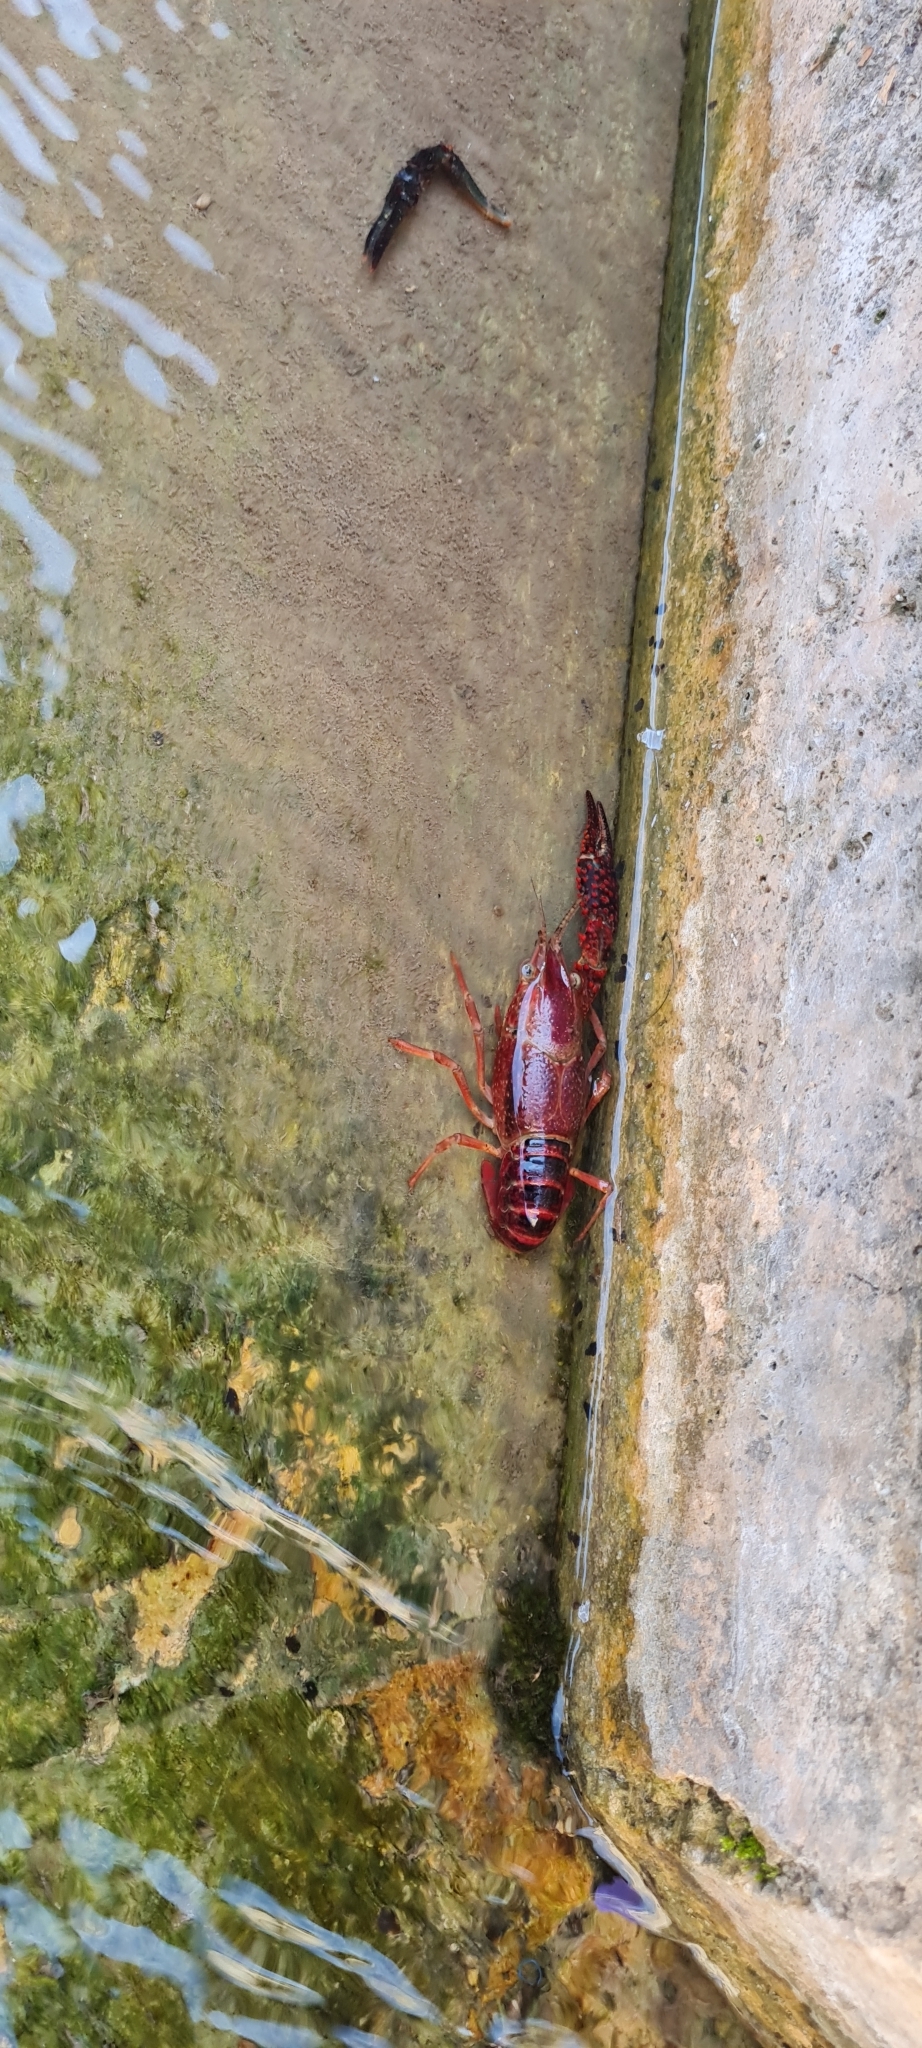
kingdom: Animalia
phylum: Arthropoda
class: Malacostraca
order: Decapoda
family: Cambaridae
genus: Procambarus
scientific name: Procambarus clarkii
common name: Red swamp crayfish
